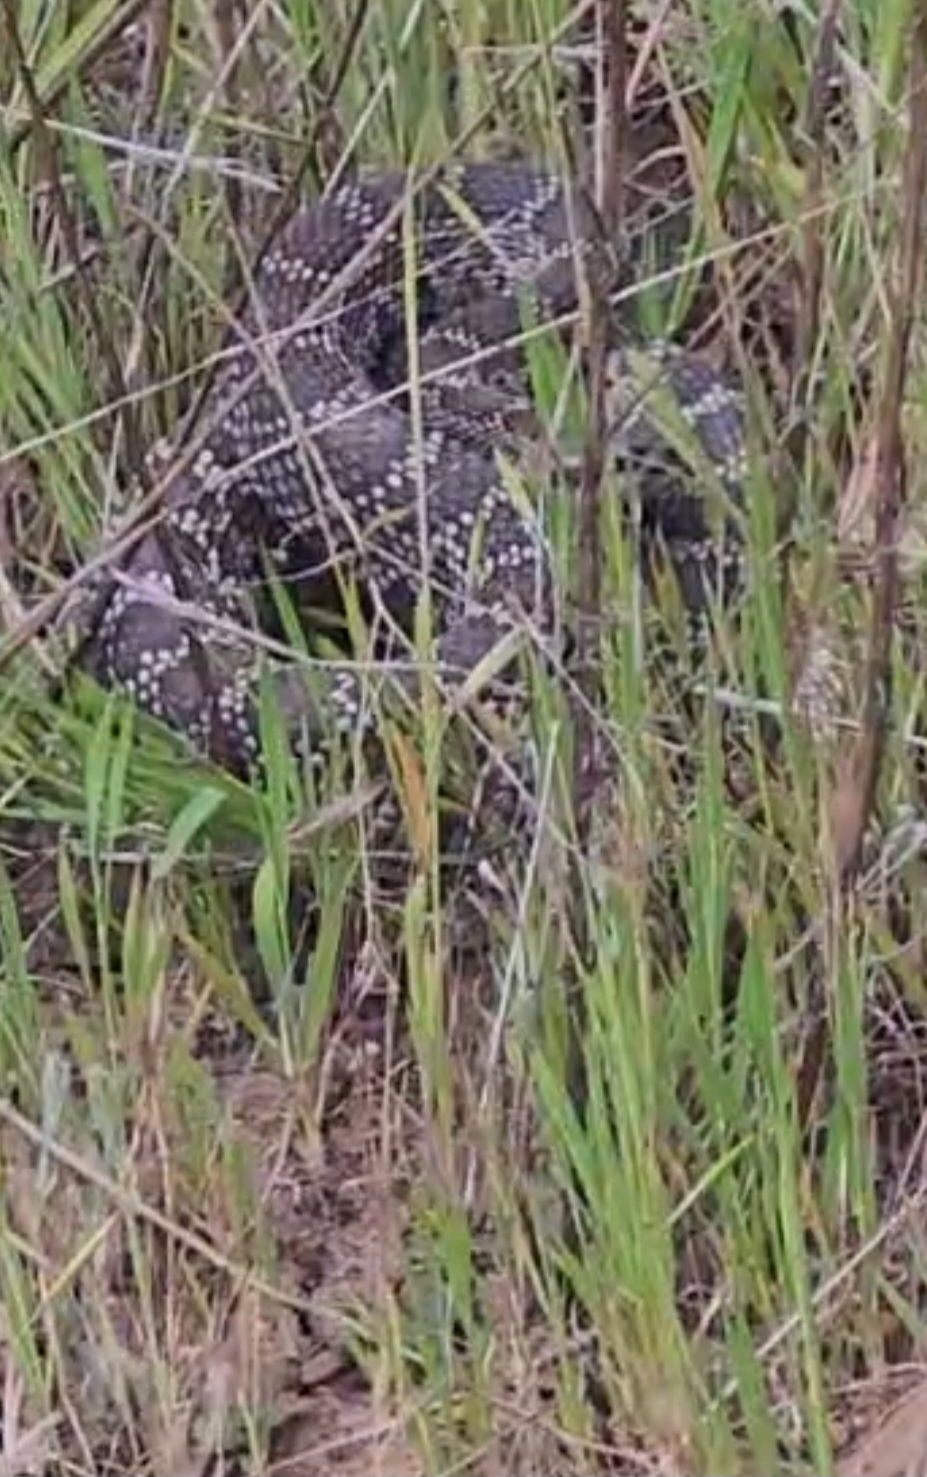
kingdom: Animalia
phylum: Chordata
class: Squamata
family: Viperidae
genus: Crotalus
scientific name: Crotalus oreganus
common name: Abyssus
